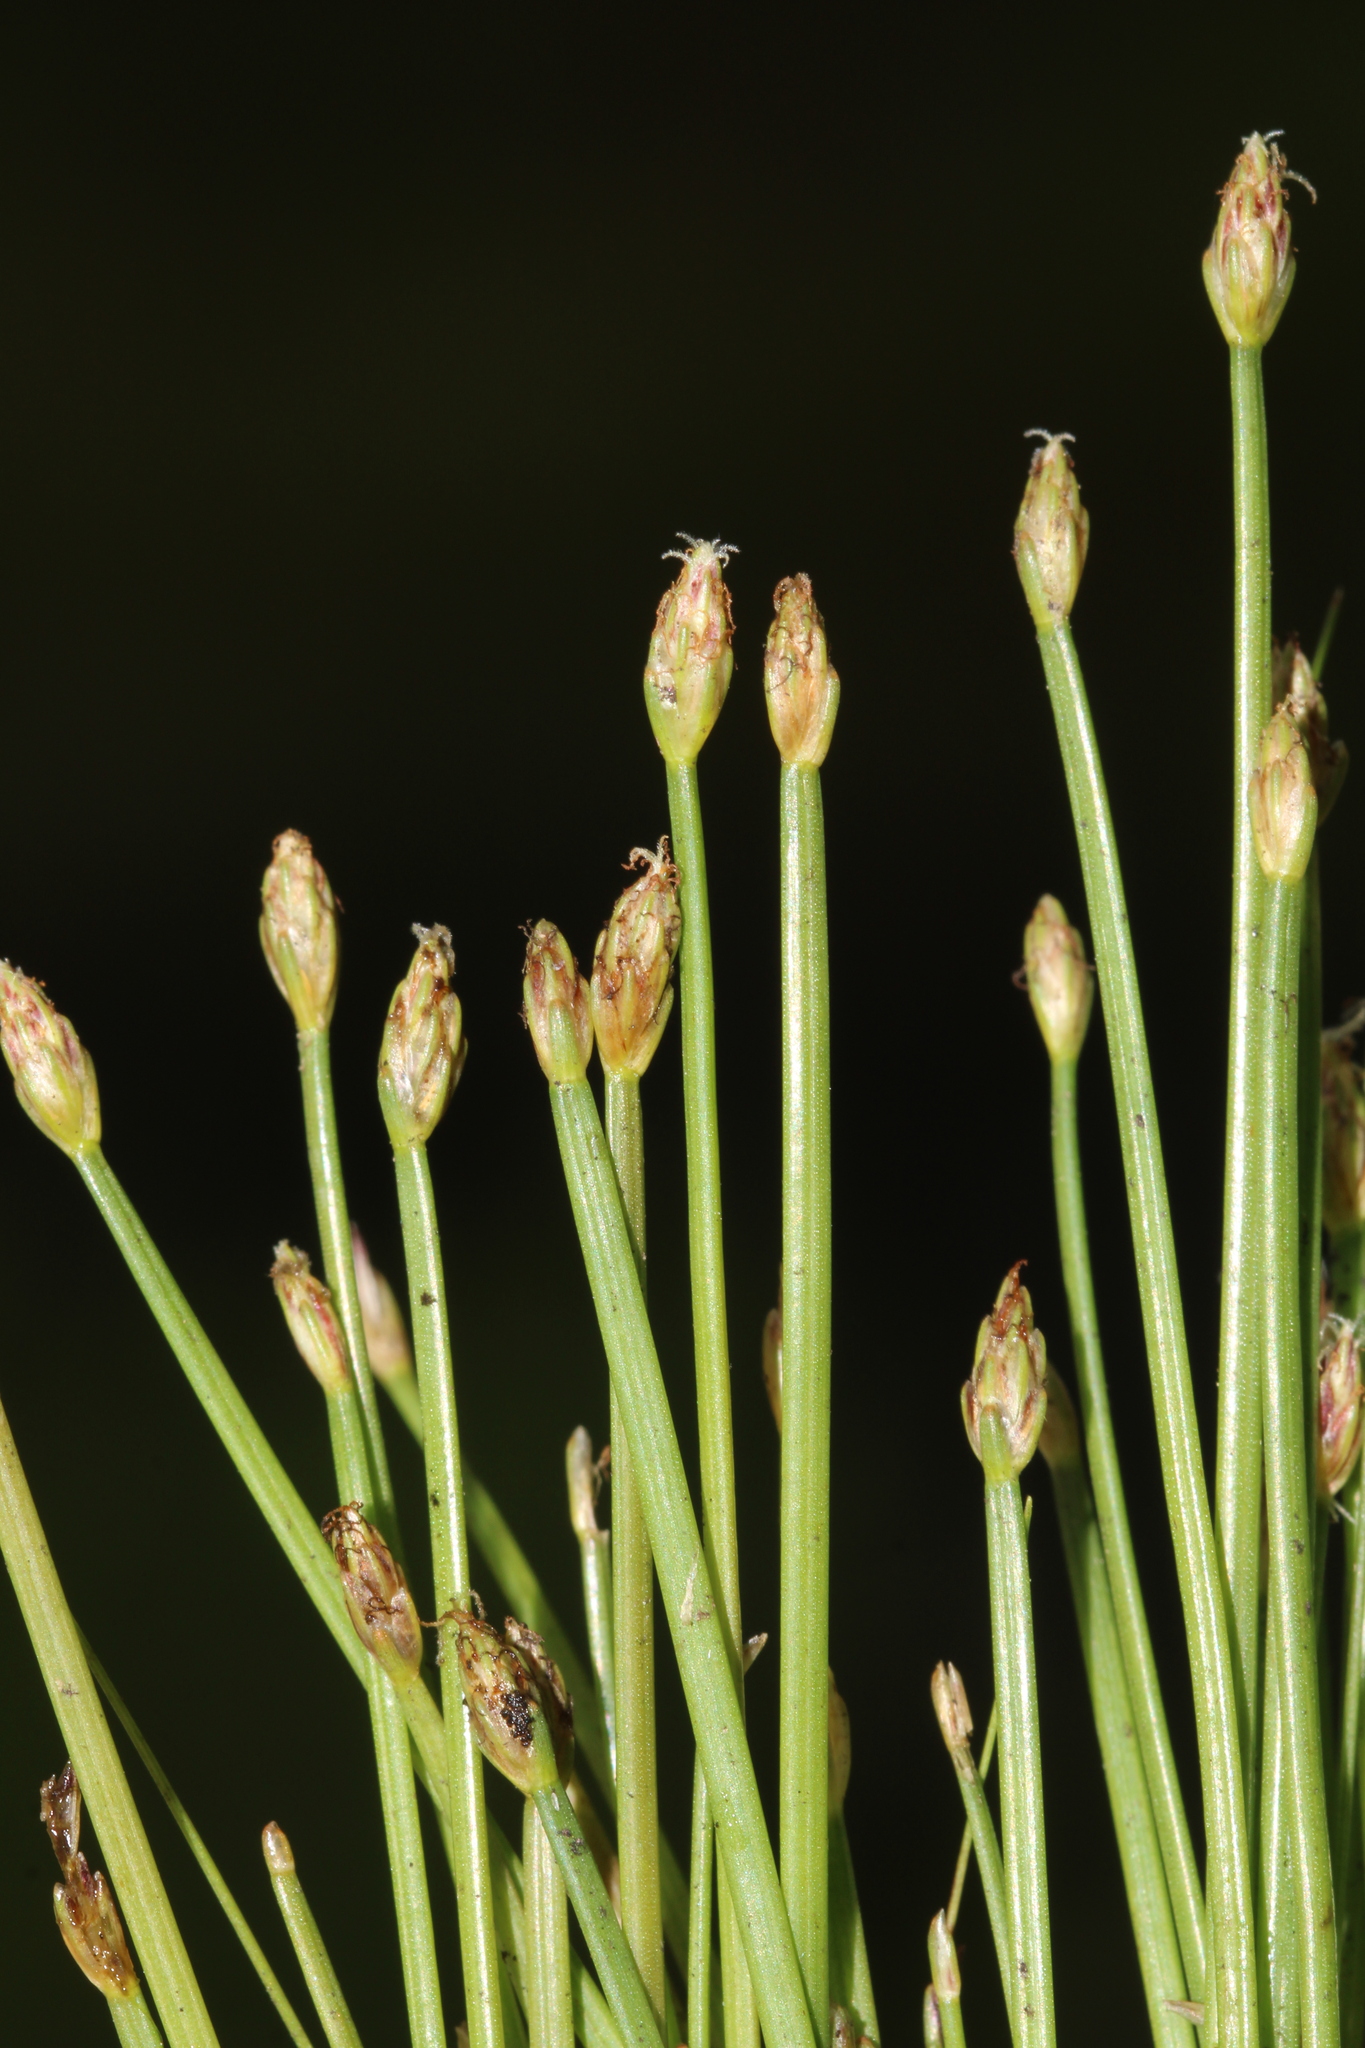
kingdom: Plantae
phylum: Tracheophyta
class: Liliopsida
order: Poales
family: Cyperaceae
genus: Eleocharis
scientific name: Eleocharis flavescens
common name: Yellow spikerush
